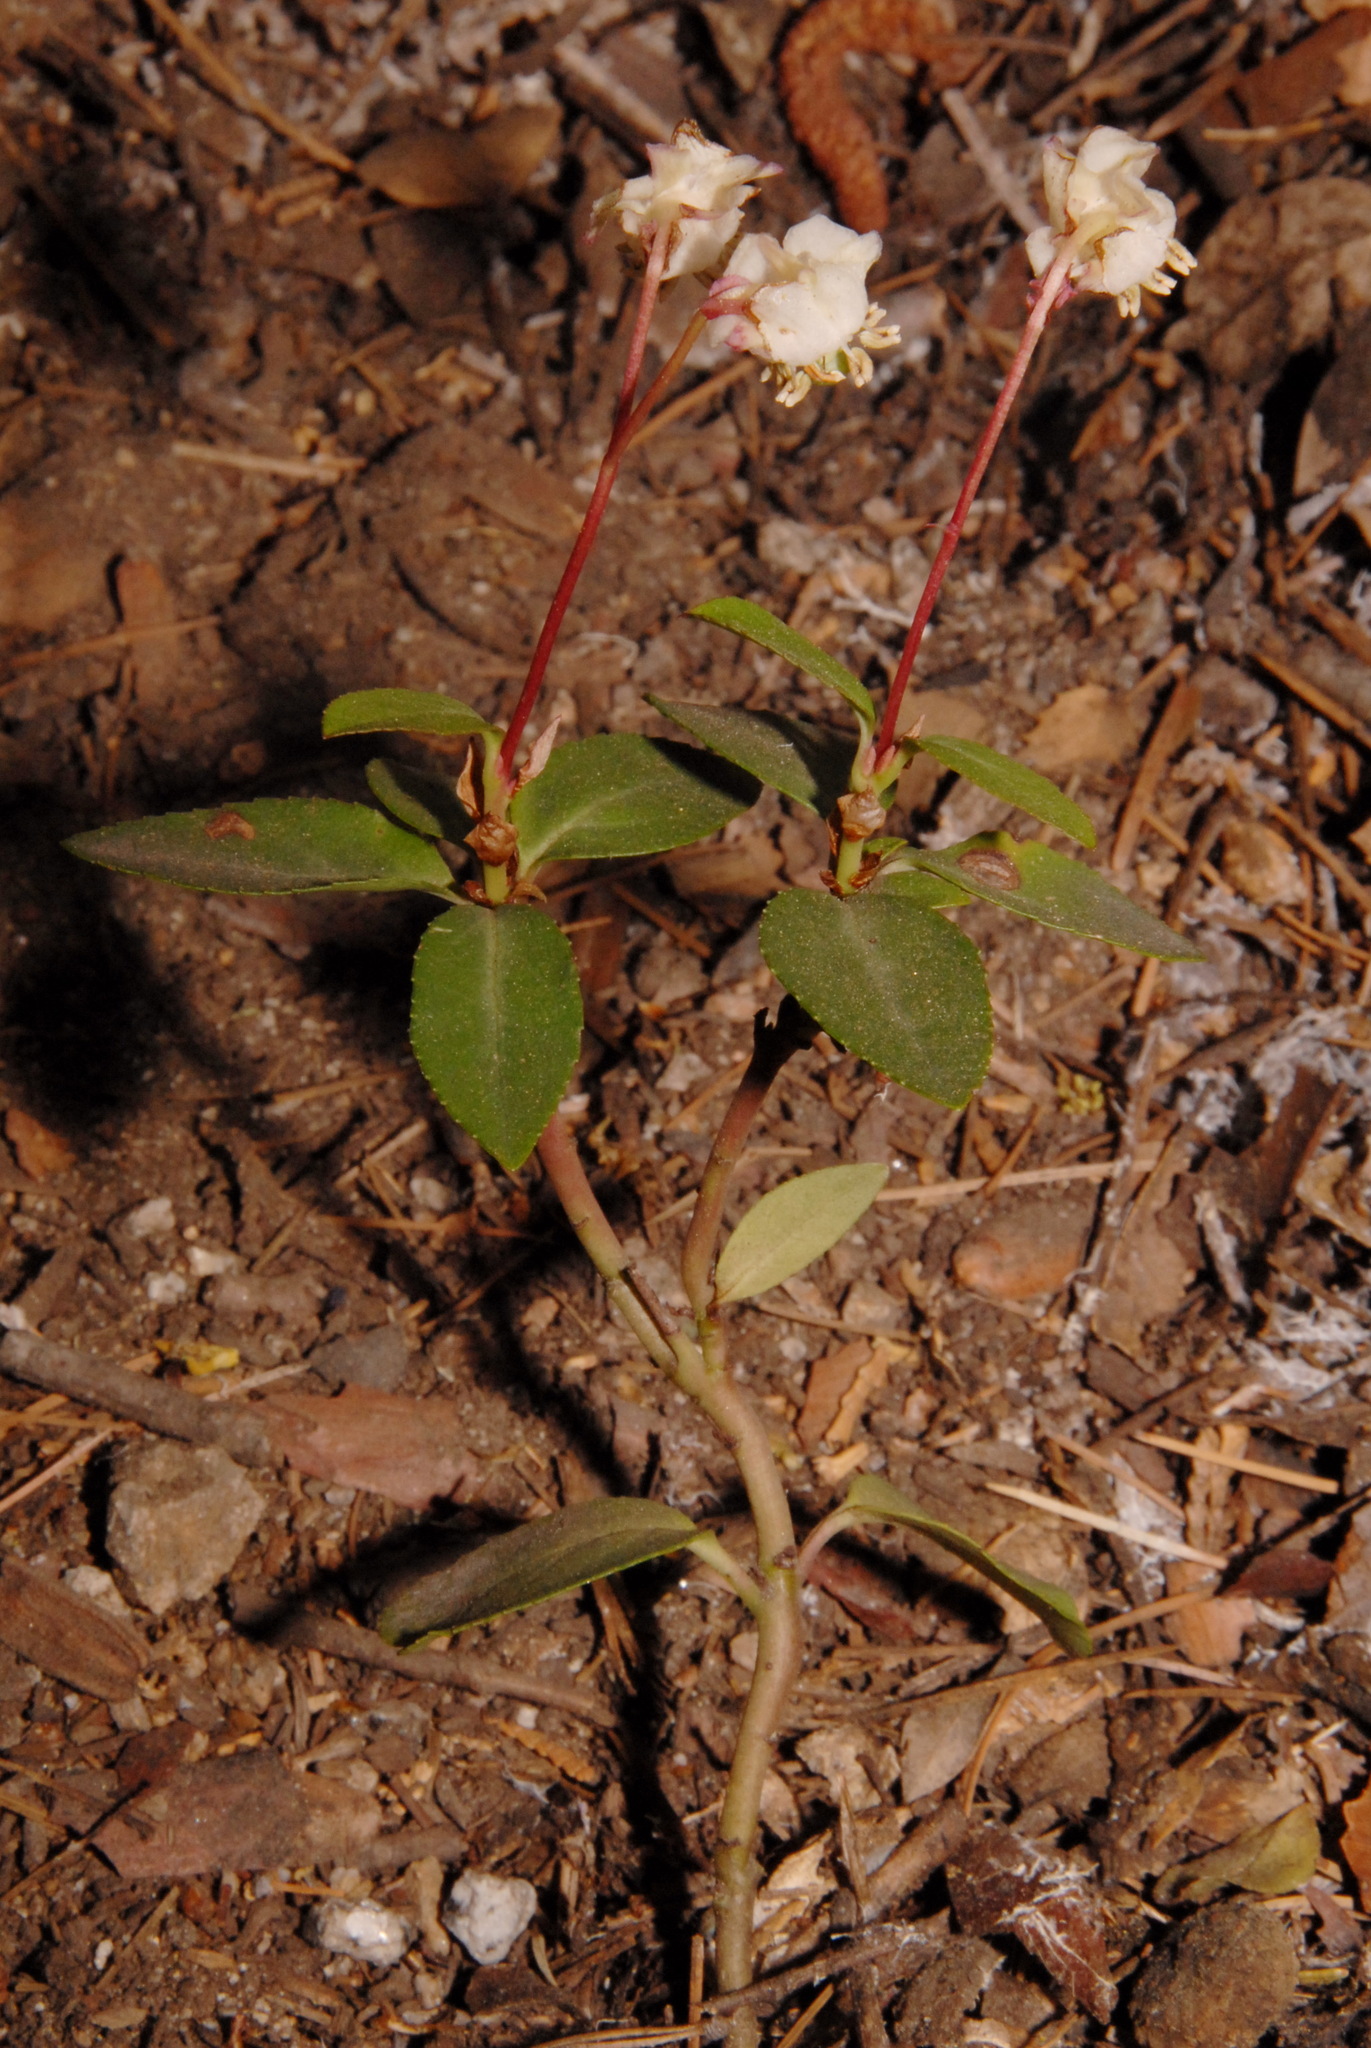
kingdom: Plantae
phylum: Tracheophyta
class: Magnoliopsida
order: Ericales
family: Ericaceae
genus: Chimaphila
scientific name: Chimaphila menziesii
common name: Menzies' pipsissewa
